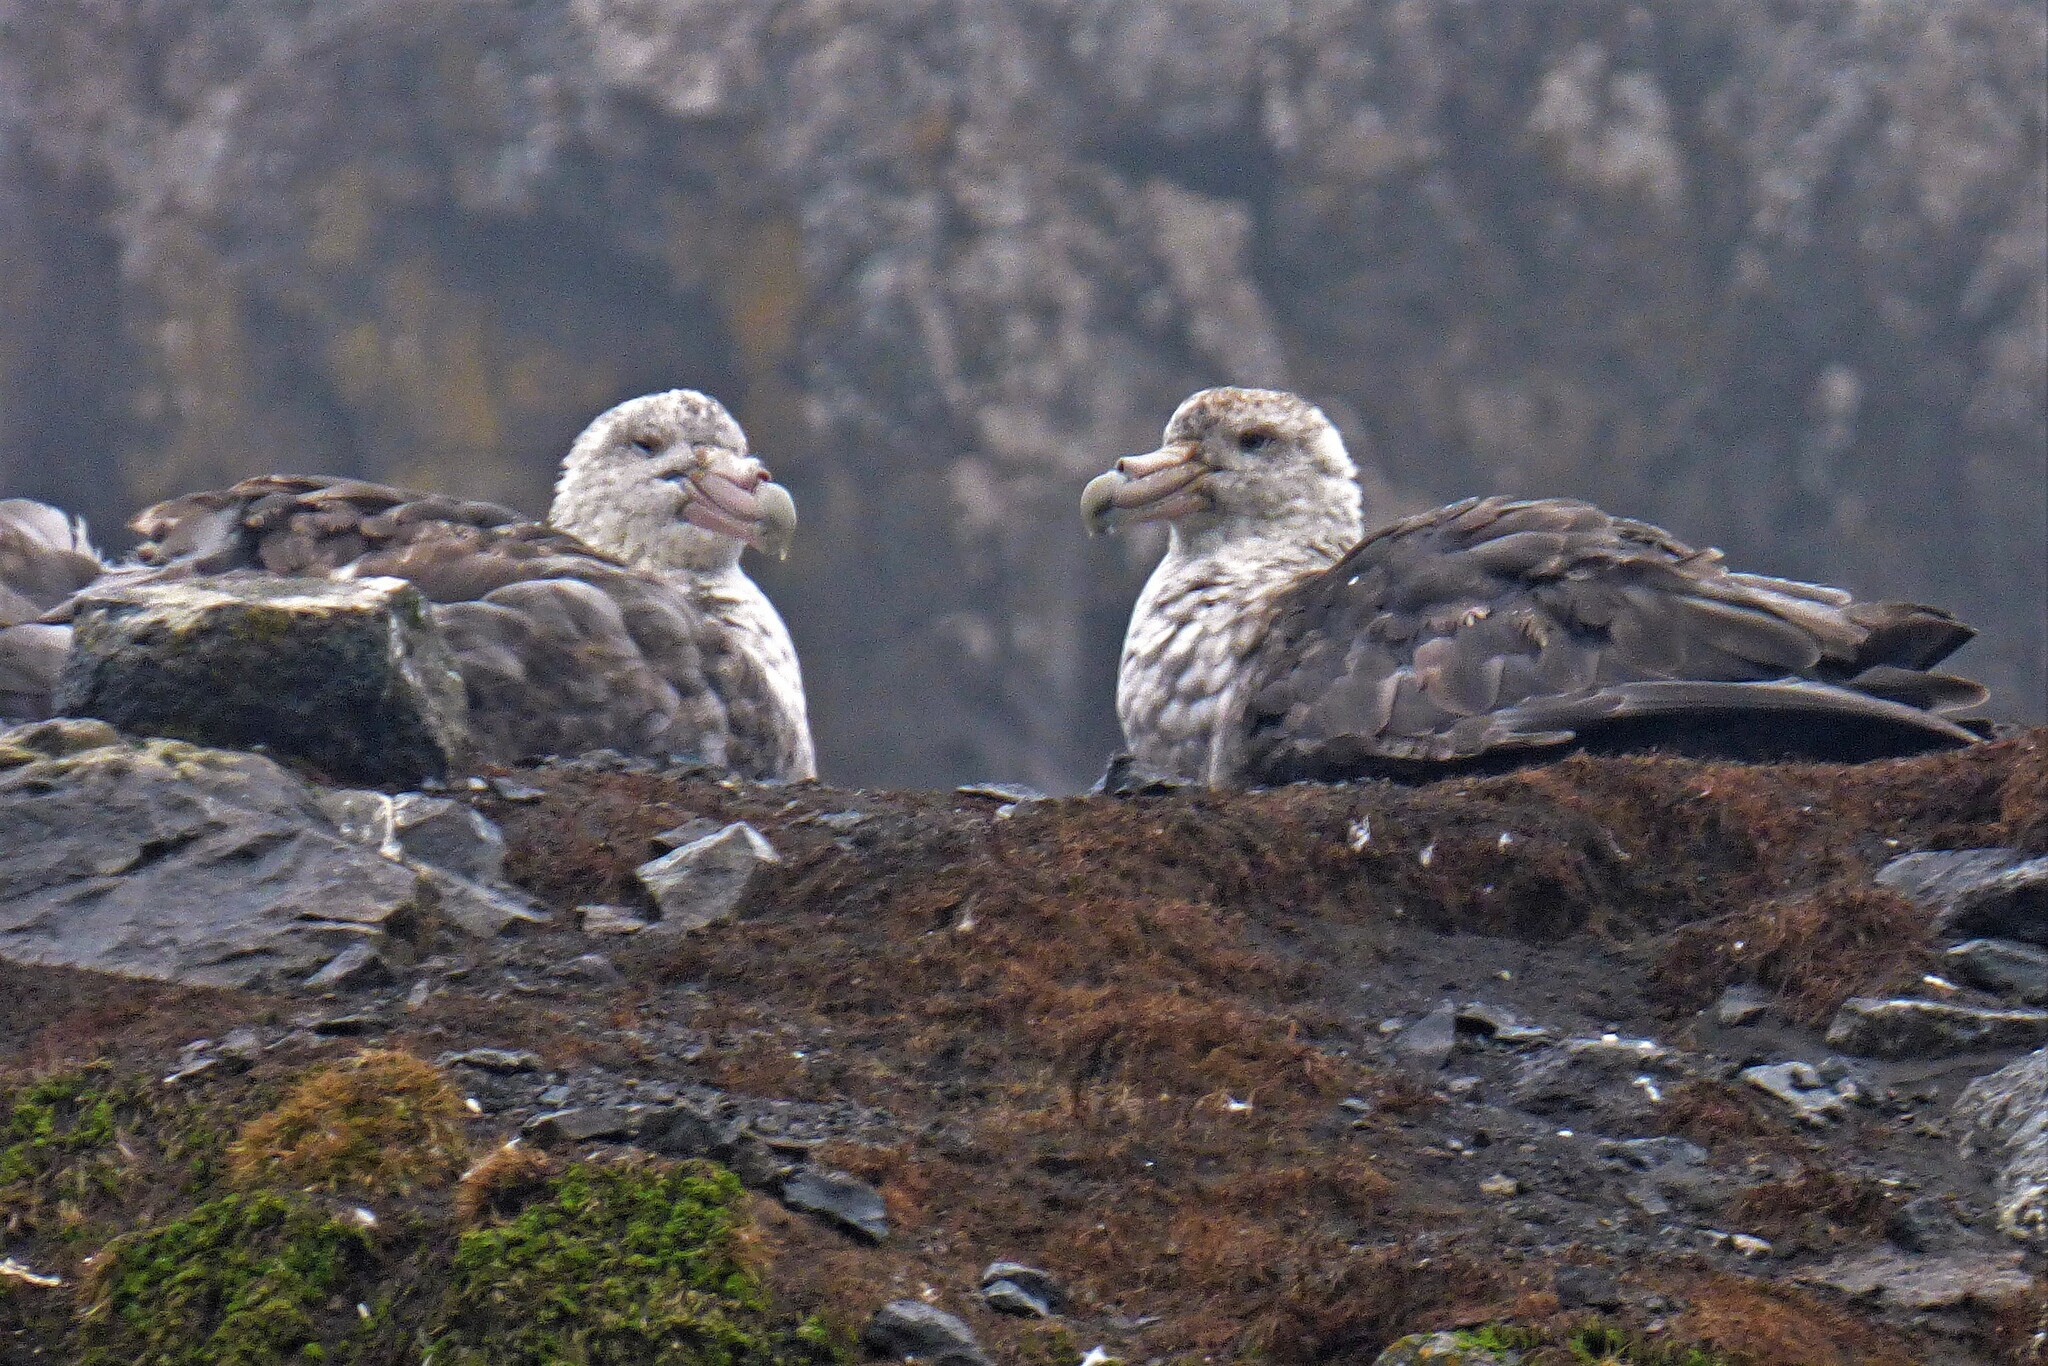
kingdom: Animalia
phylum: Chordata
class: Aves
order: Procellariiformes
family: Procellariidae
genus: Macronectes
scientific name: Macronectes giganteus
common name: Southern giant petrel
